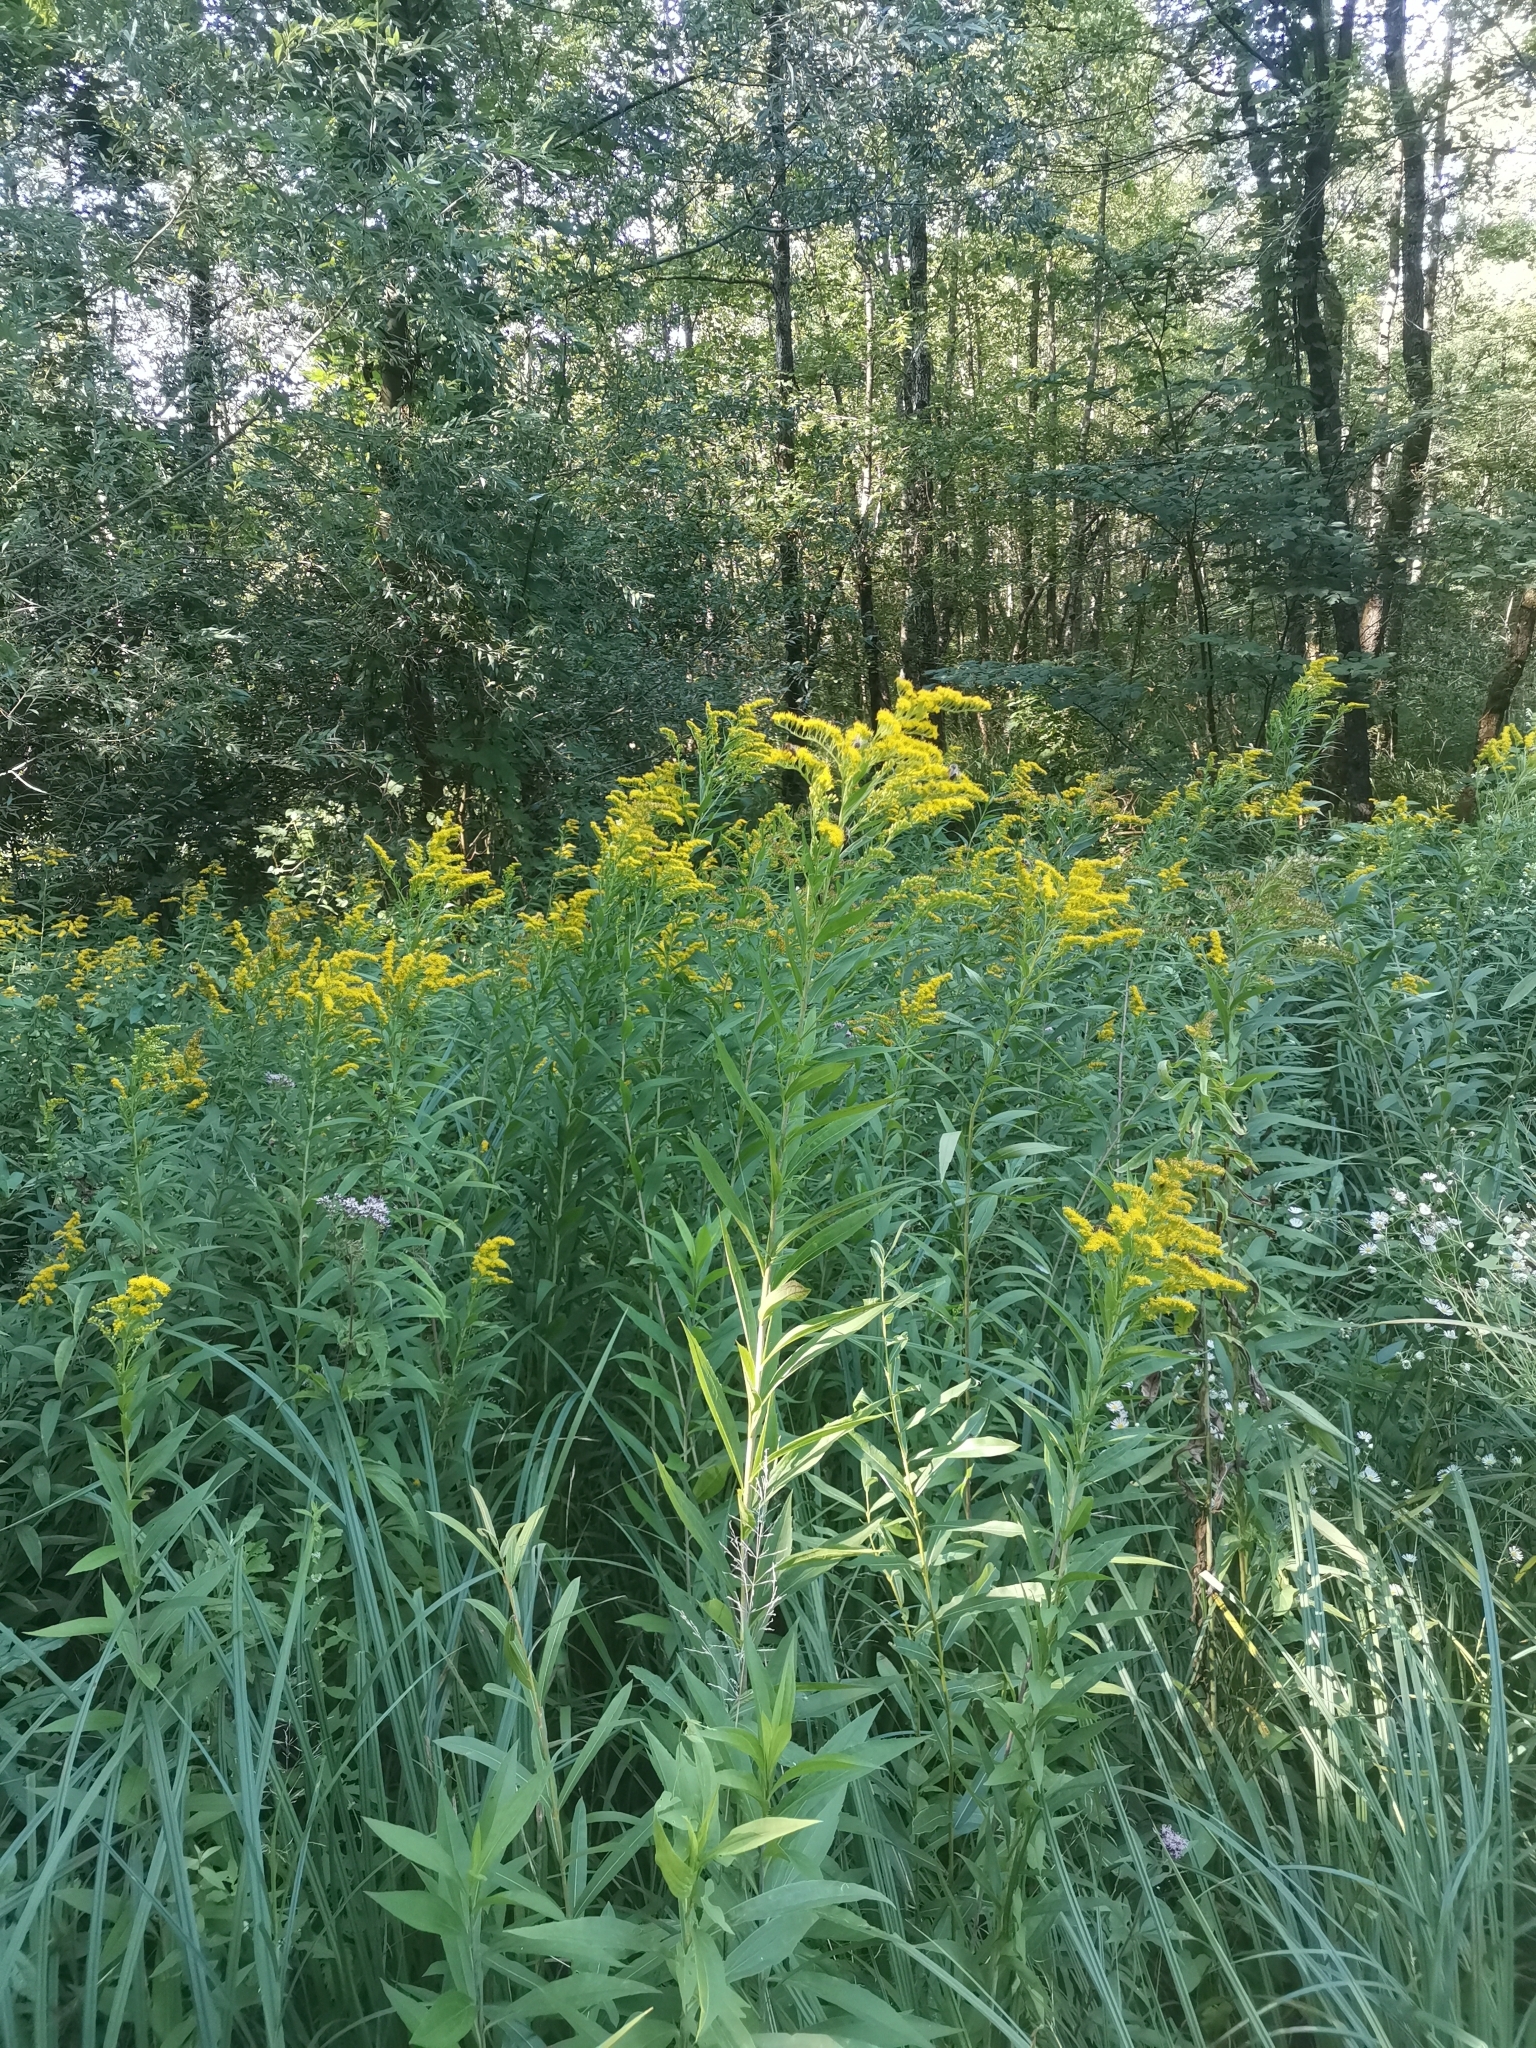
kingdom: Plantae
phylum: Tracheophyta
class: Magnoliopsida
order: Asterales
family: Asteraceae
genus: Solidago
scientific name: Solidago gigantea
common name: Giant goldenrod
